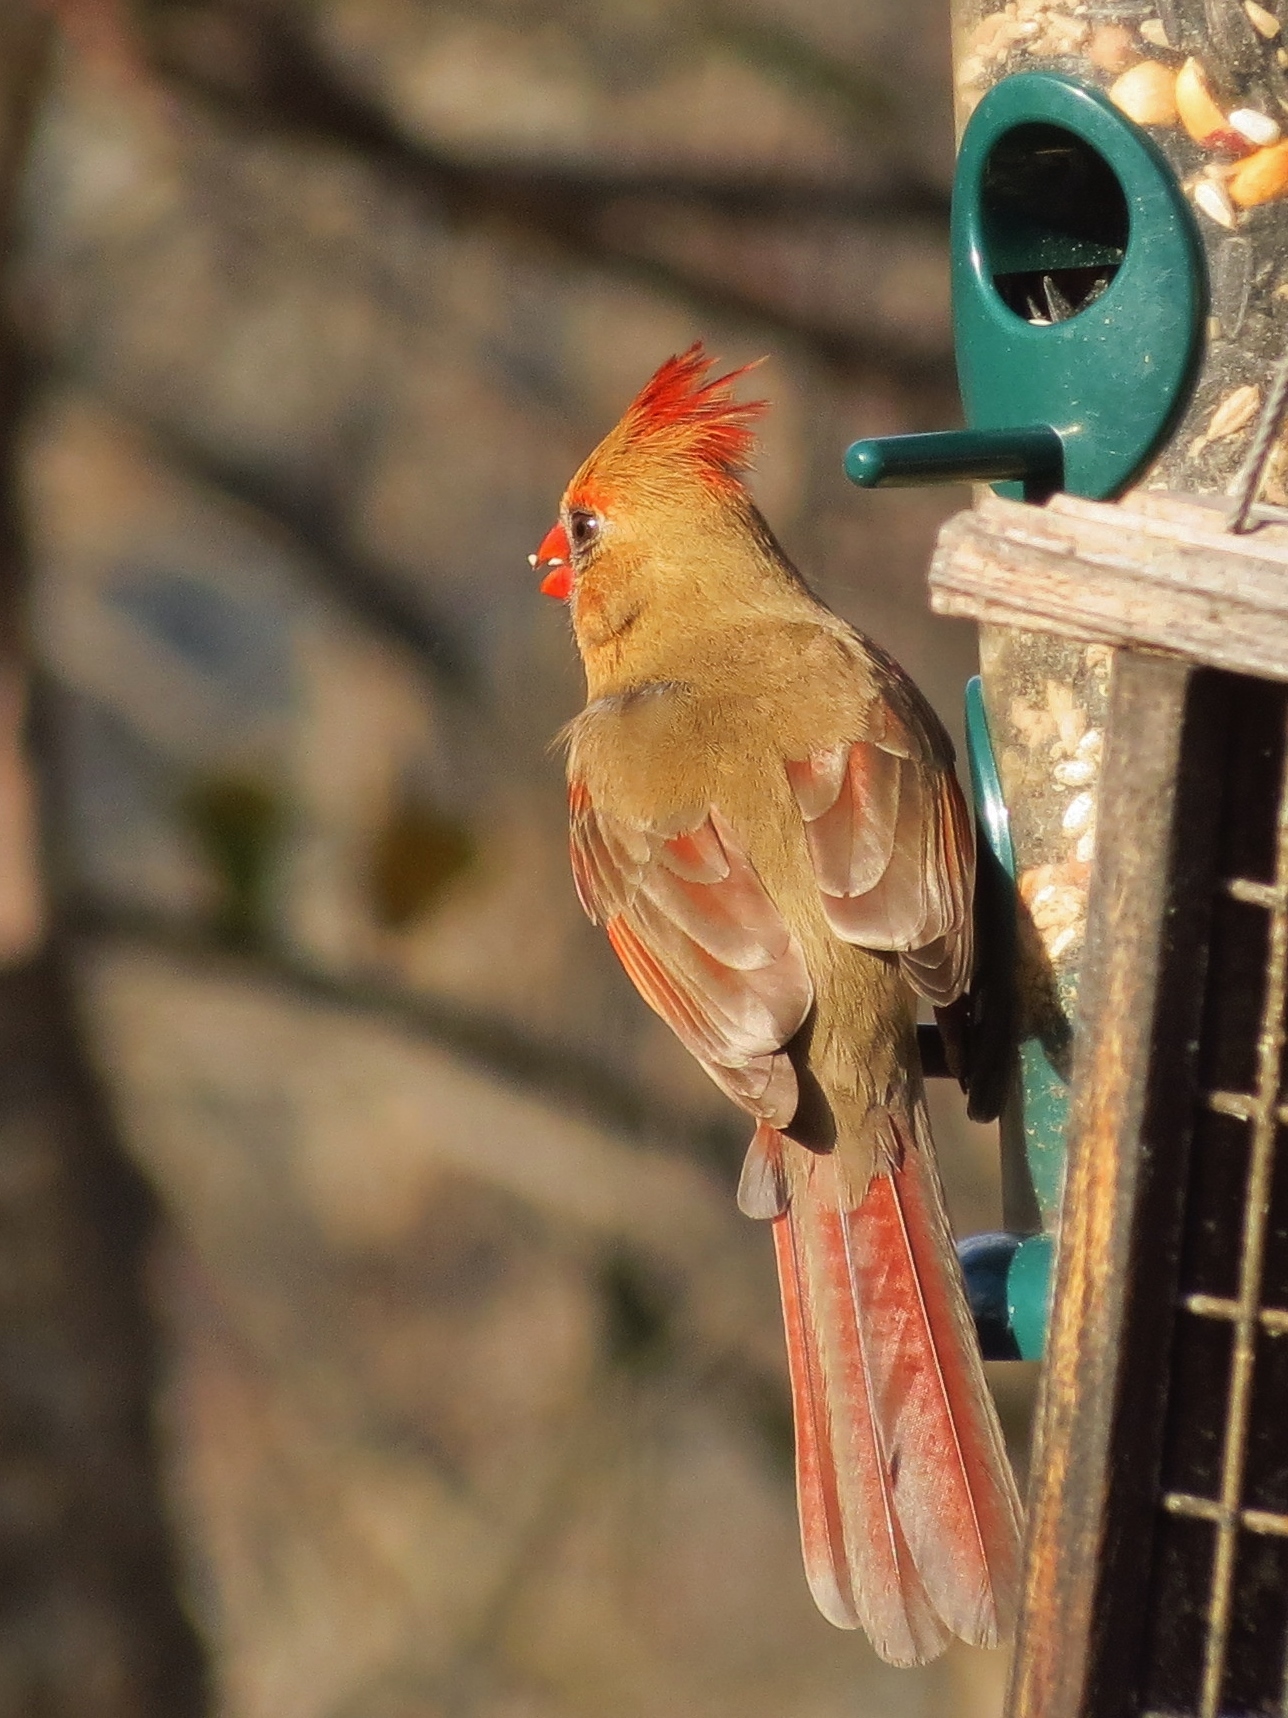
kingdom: Animalia
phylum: Chordata
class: Aves
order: Passeriformes
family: Cardinalidae
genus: Cardinalis
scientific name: Cardinalis cardinalis
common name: Northern cardinal
